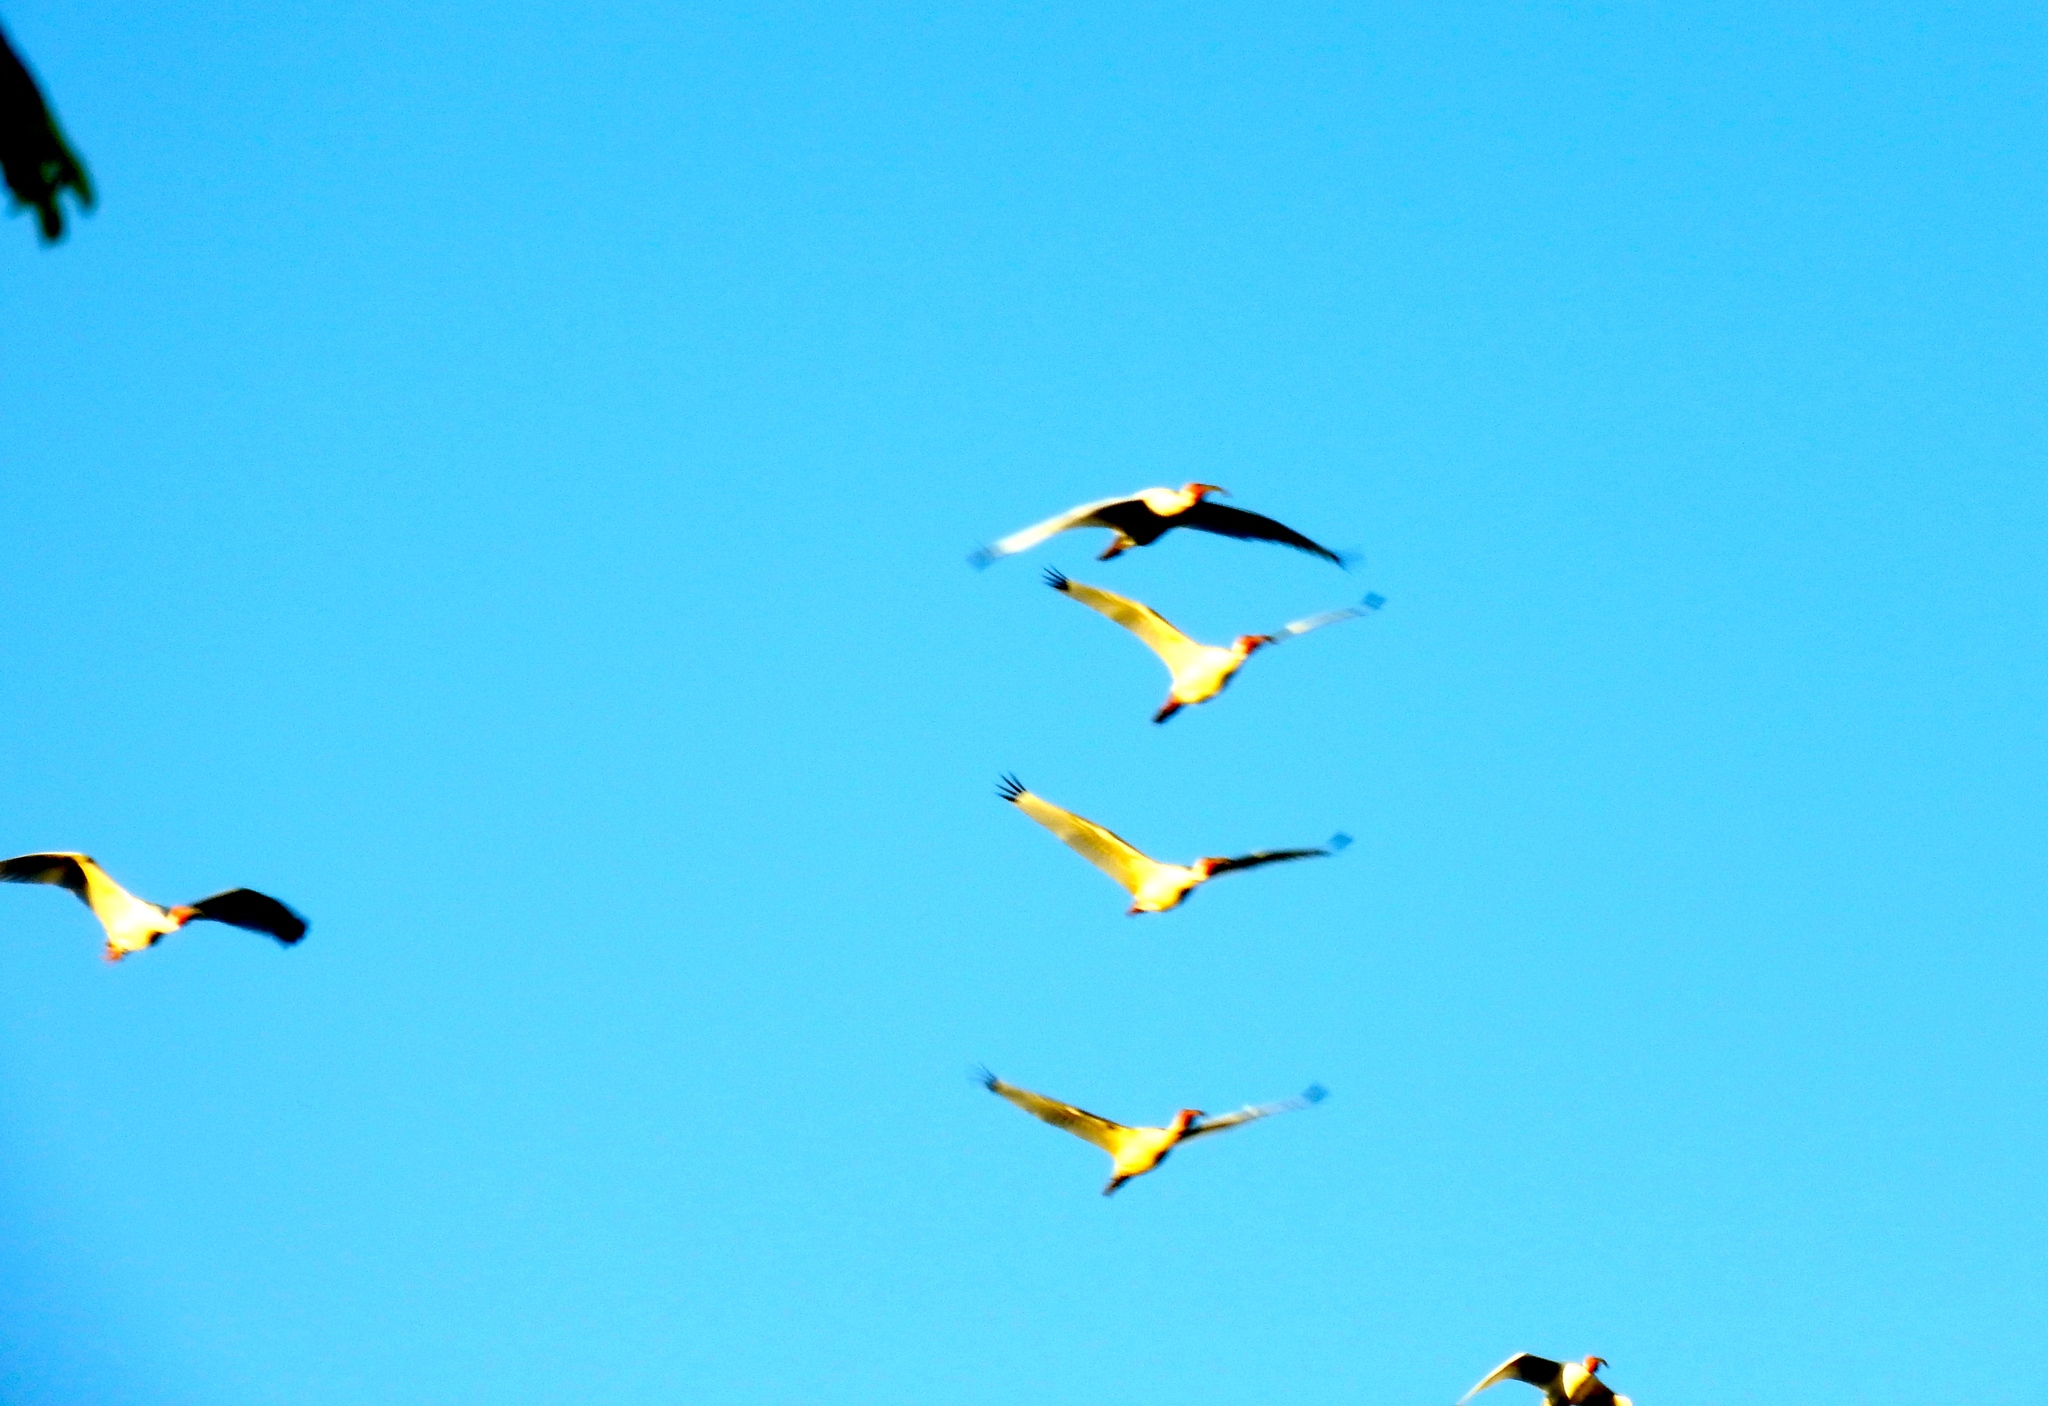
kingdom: Animalia
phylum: Chordata
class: Aves
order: Pelecaniformes
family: Threskiornithidae
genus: Eudocimus
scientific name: Eudocimus albus
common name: White ibis
